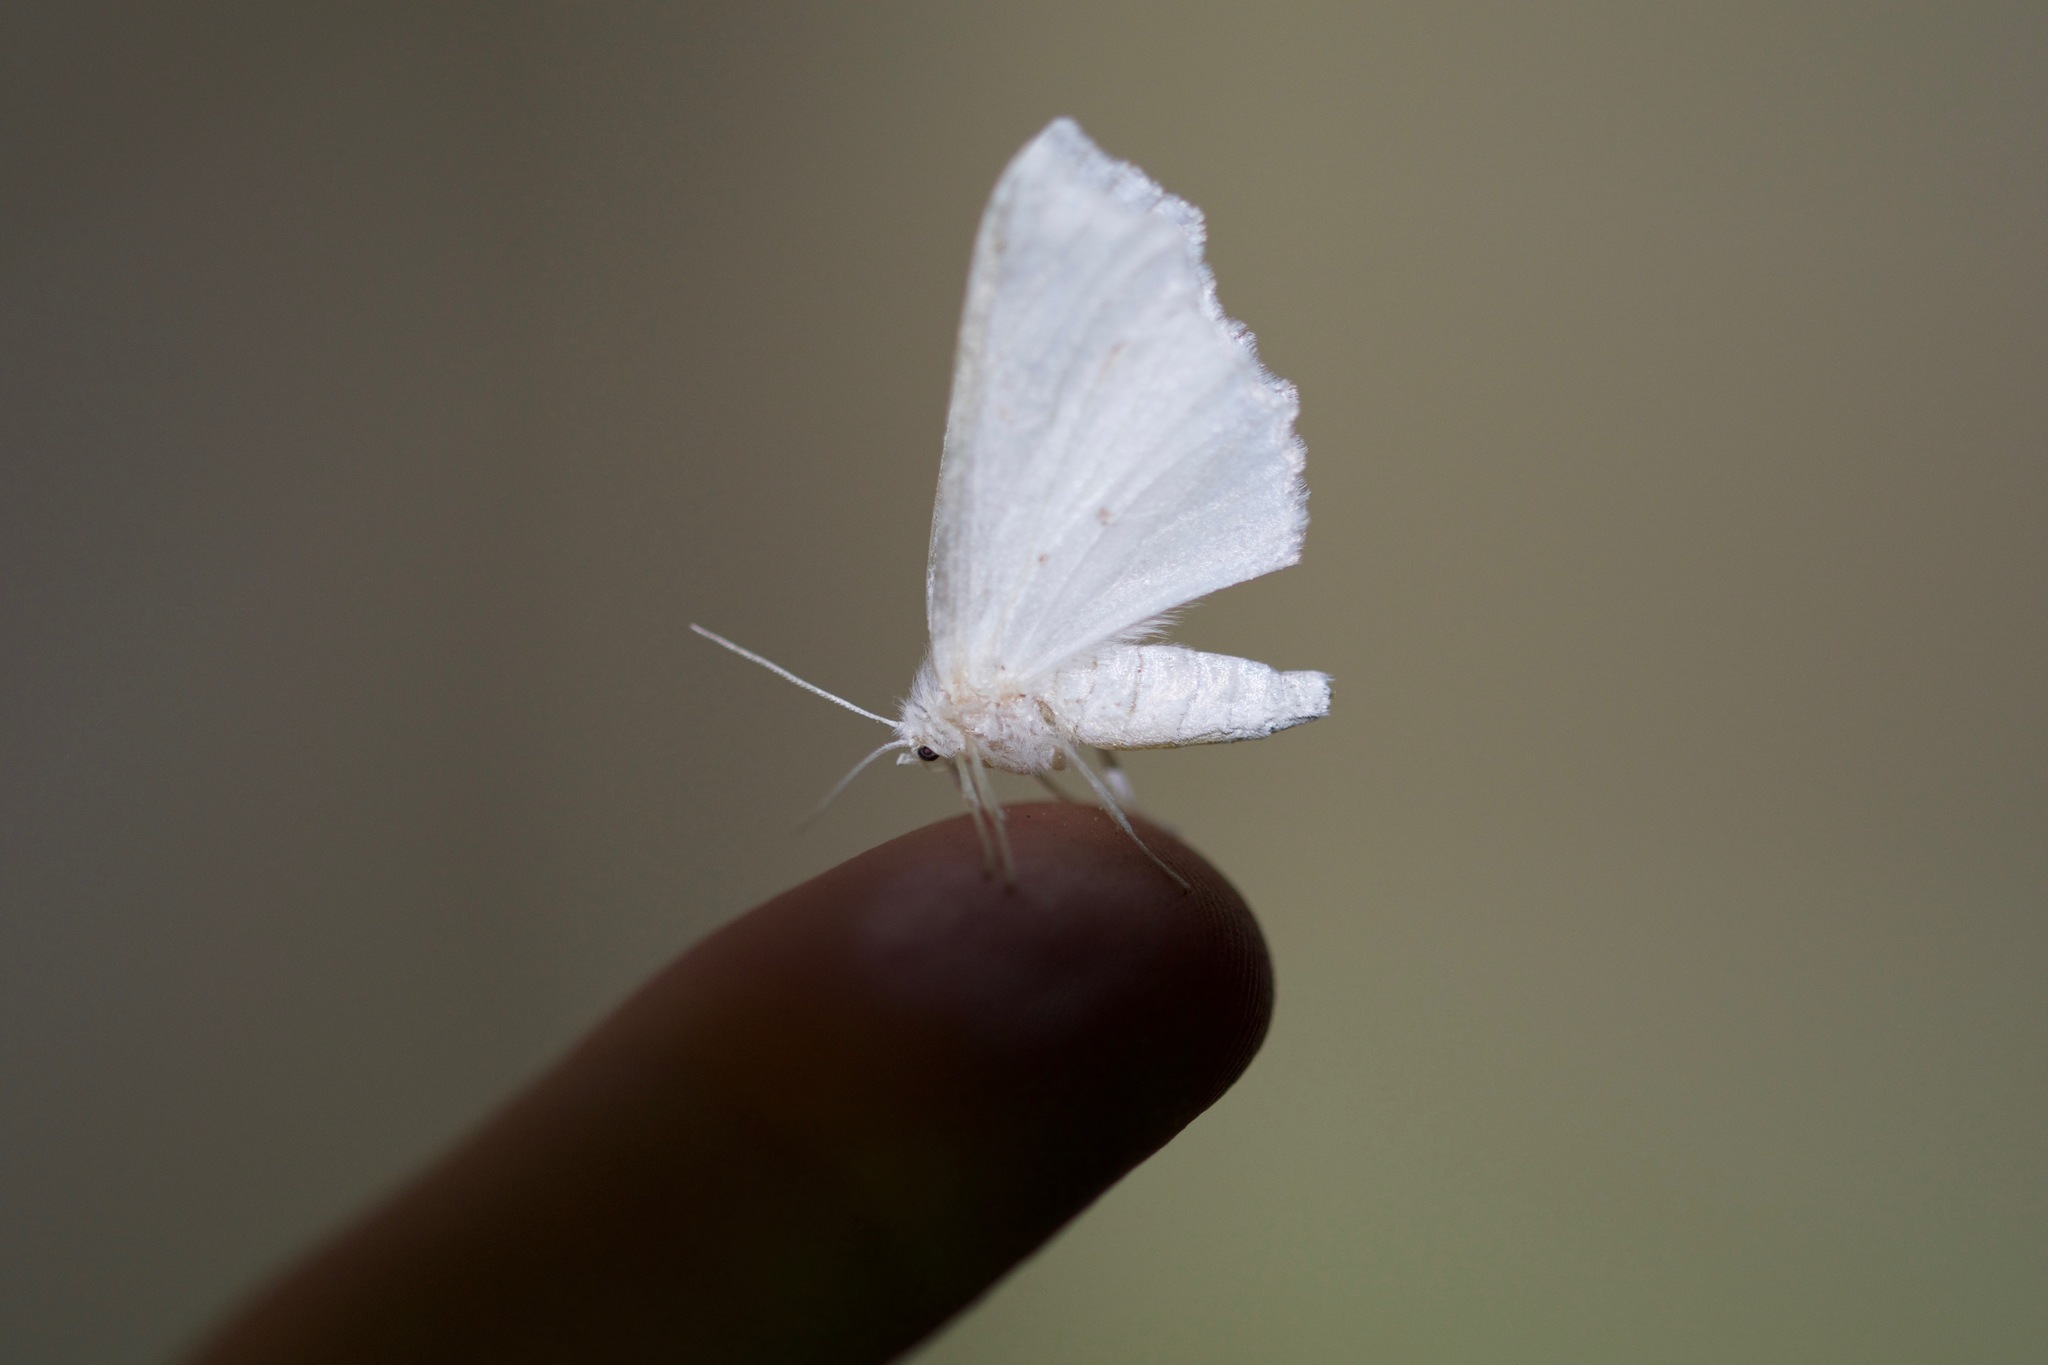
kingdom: Animalia
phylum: Arthropoda
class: Insecta
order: Lepidoptera
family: Geometridae
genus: Ennomos
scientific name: Ennomos subsignaria
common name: Elm spanworm
